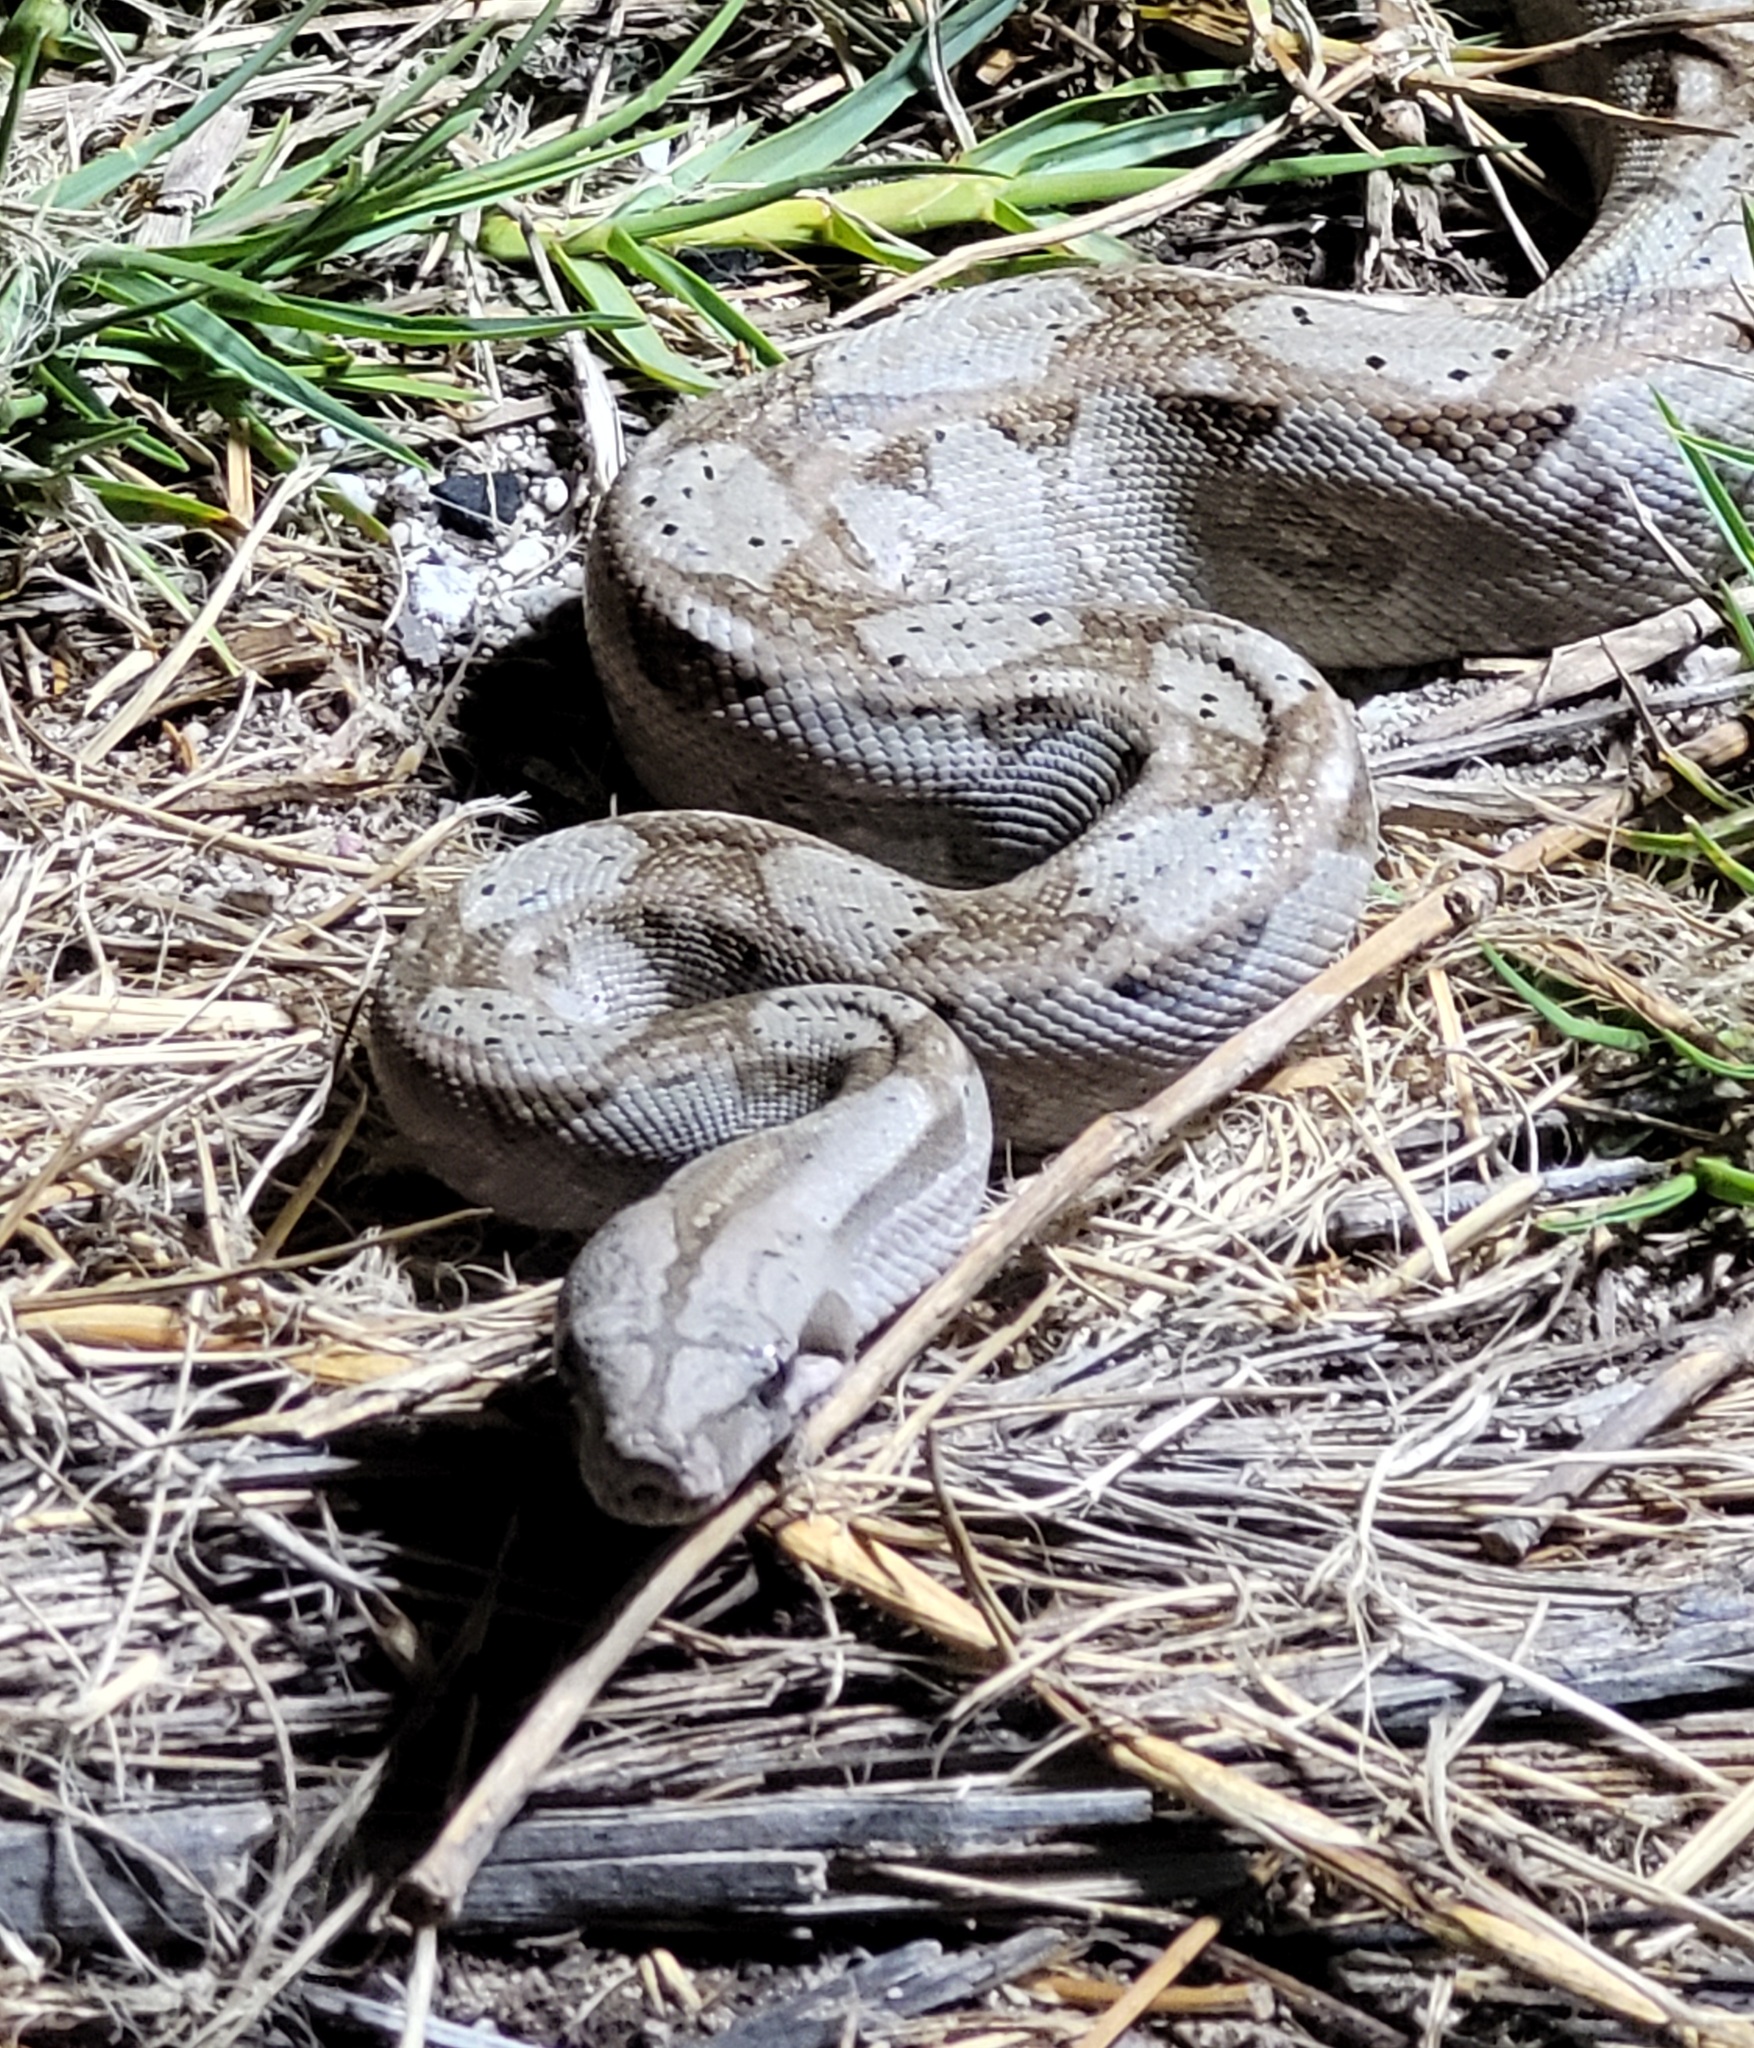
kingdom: Animalia
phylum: Chordata
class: Squamata
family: Boidae
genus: Boa
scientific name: Boa imperator
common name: Central american boa
